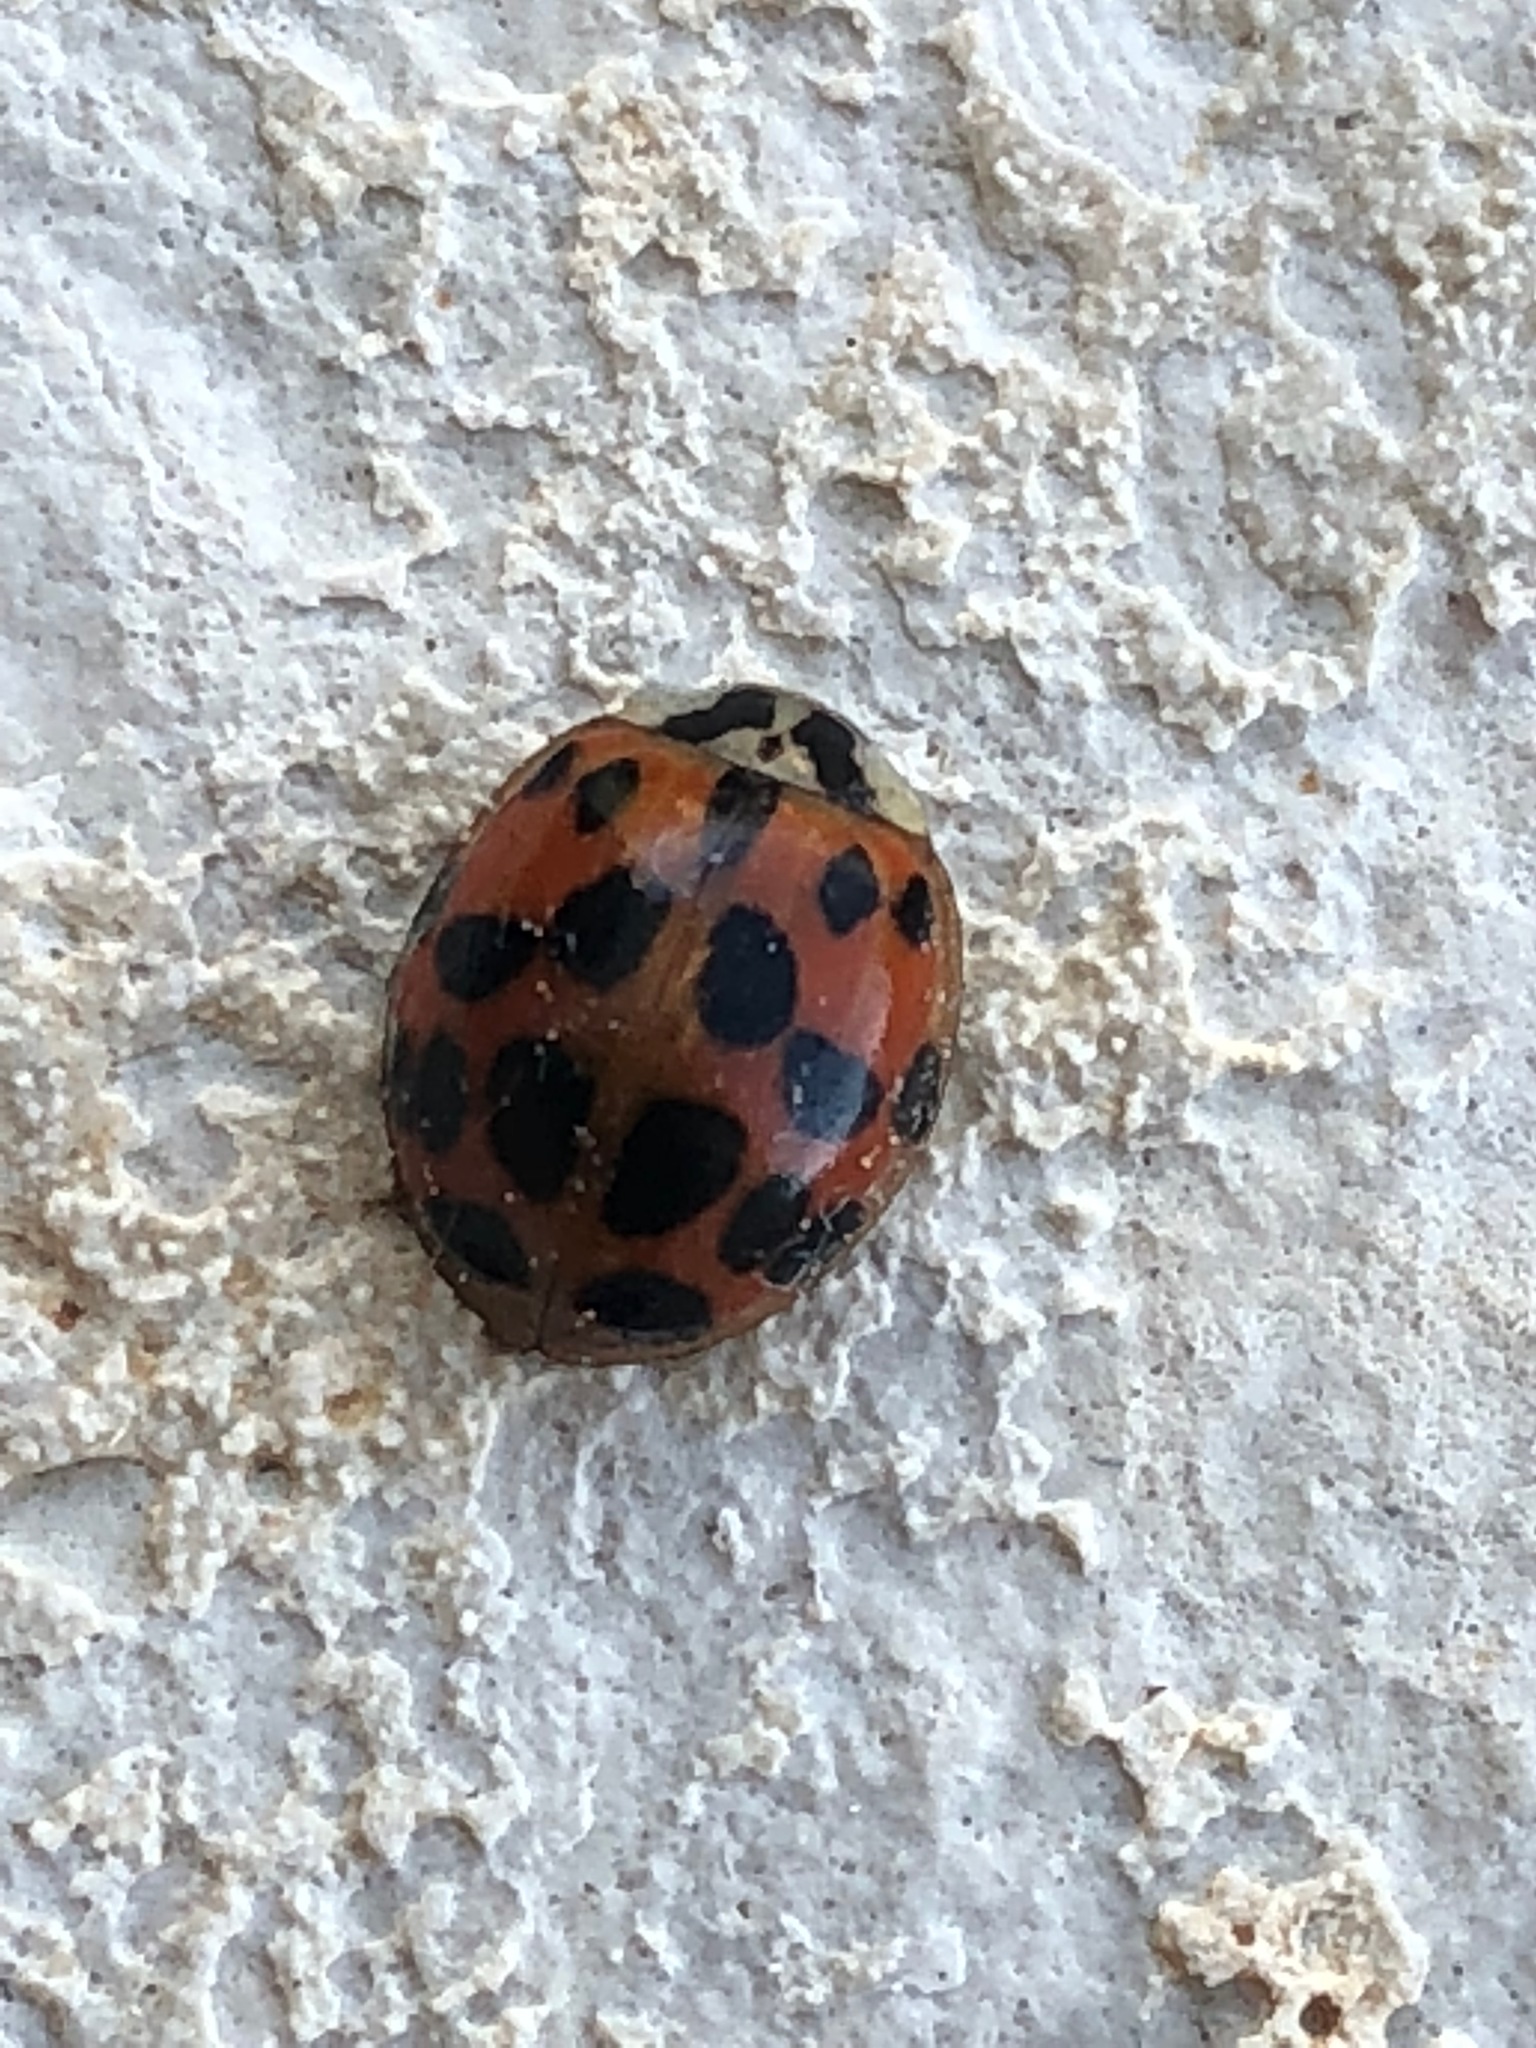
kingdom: Animalia
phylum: Arthropoda
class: Insecta
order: Coleoptera
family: Coccinellidae
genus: Harmonia
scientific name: Harmonia axyridis
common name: Harlequin ladybird
